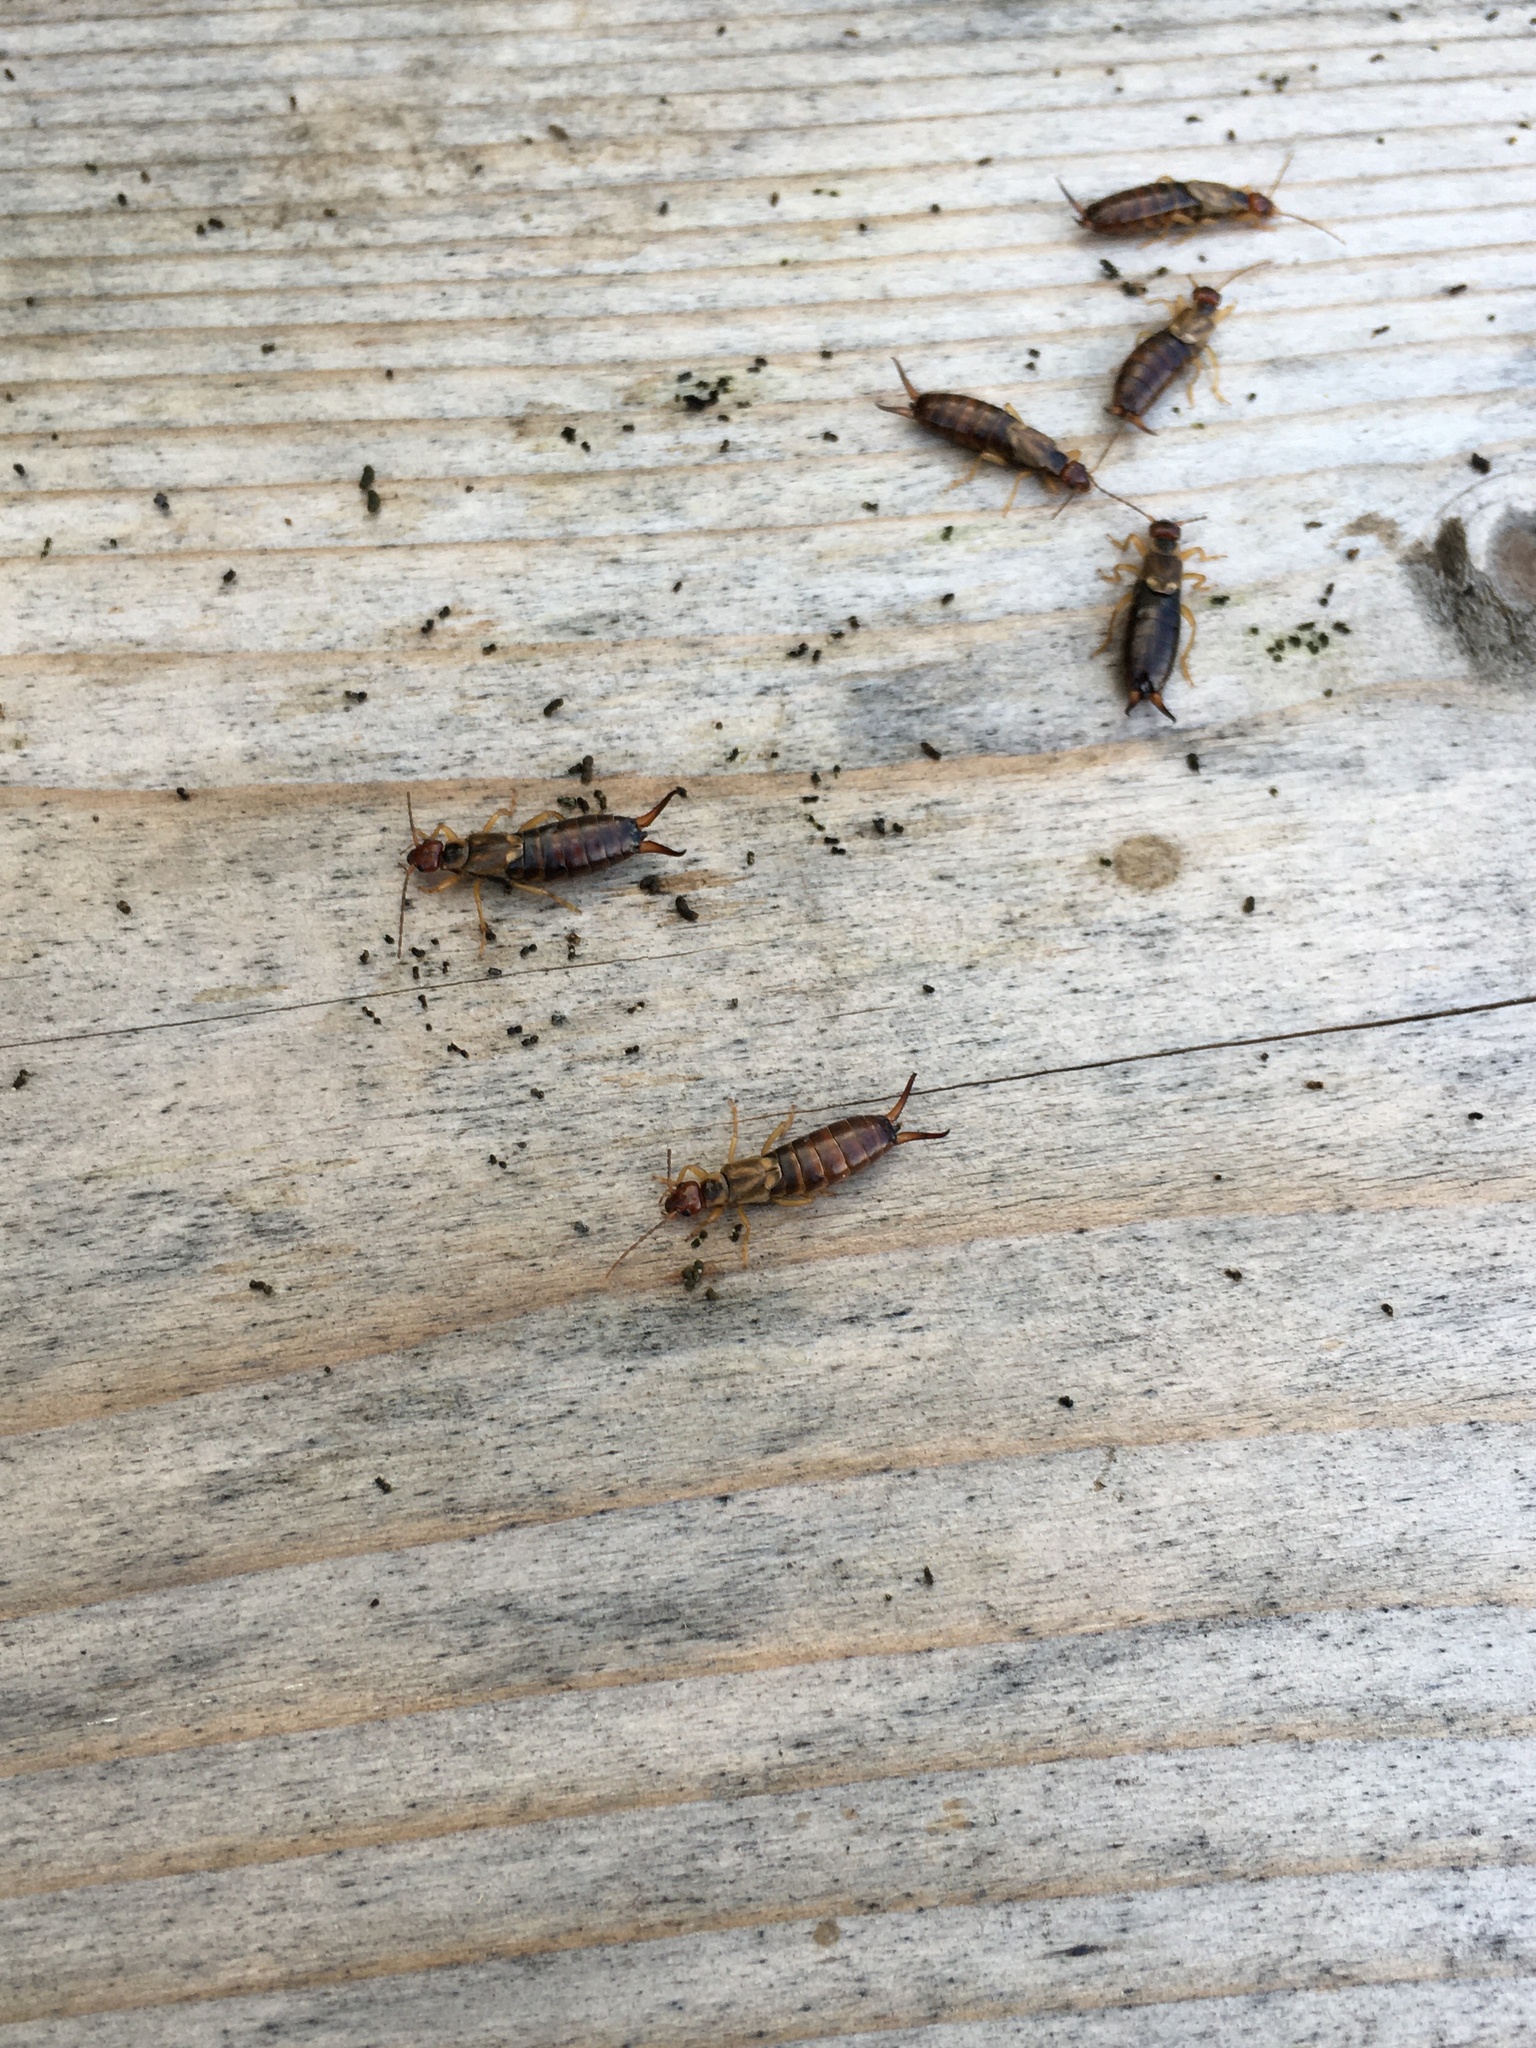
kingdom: Animalia
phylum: Arthropoda
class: Insecta
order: Dermaptera
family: Forficulidae
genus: Forficula
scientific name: Forficula dentata
